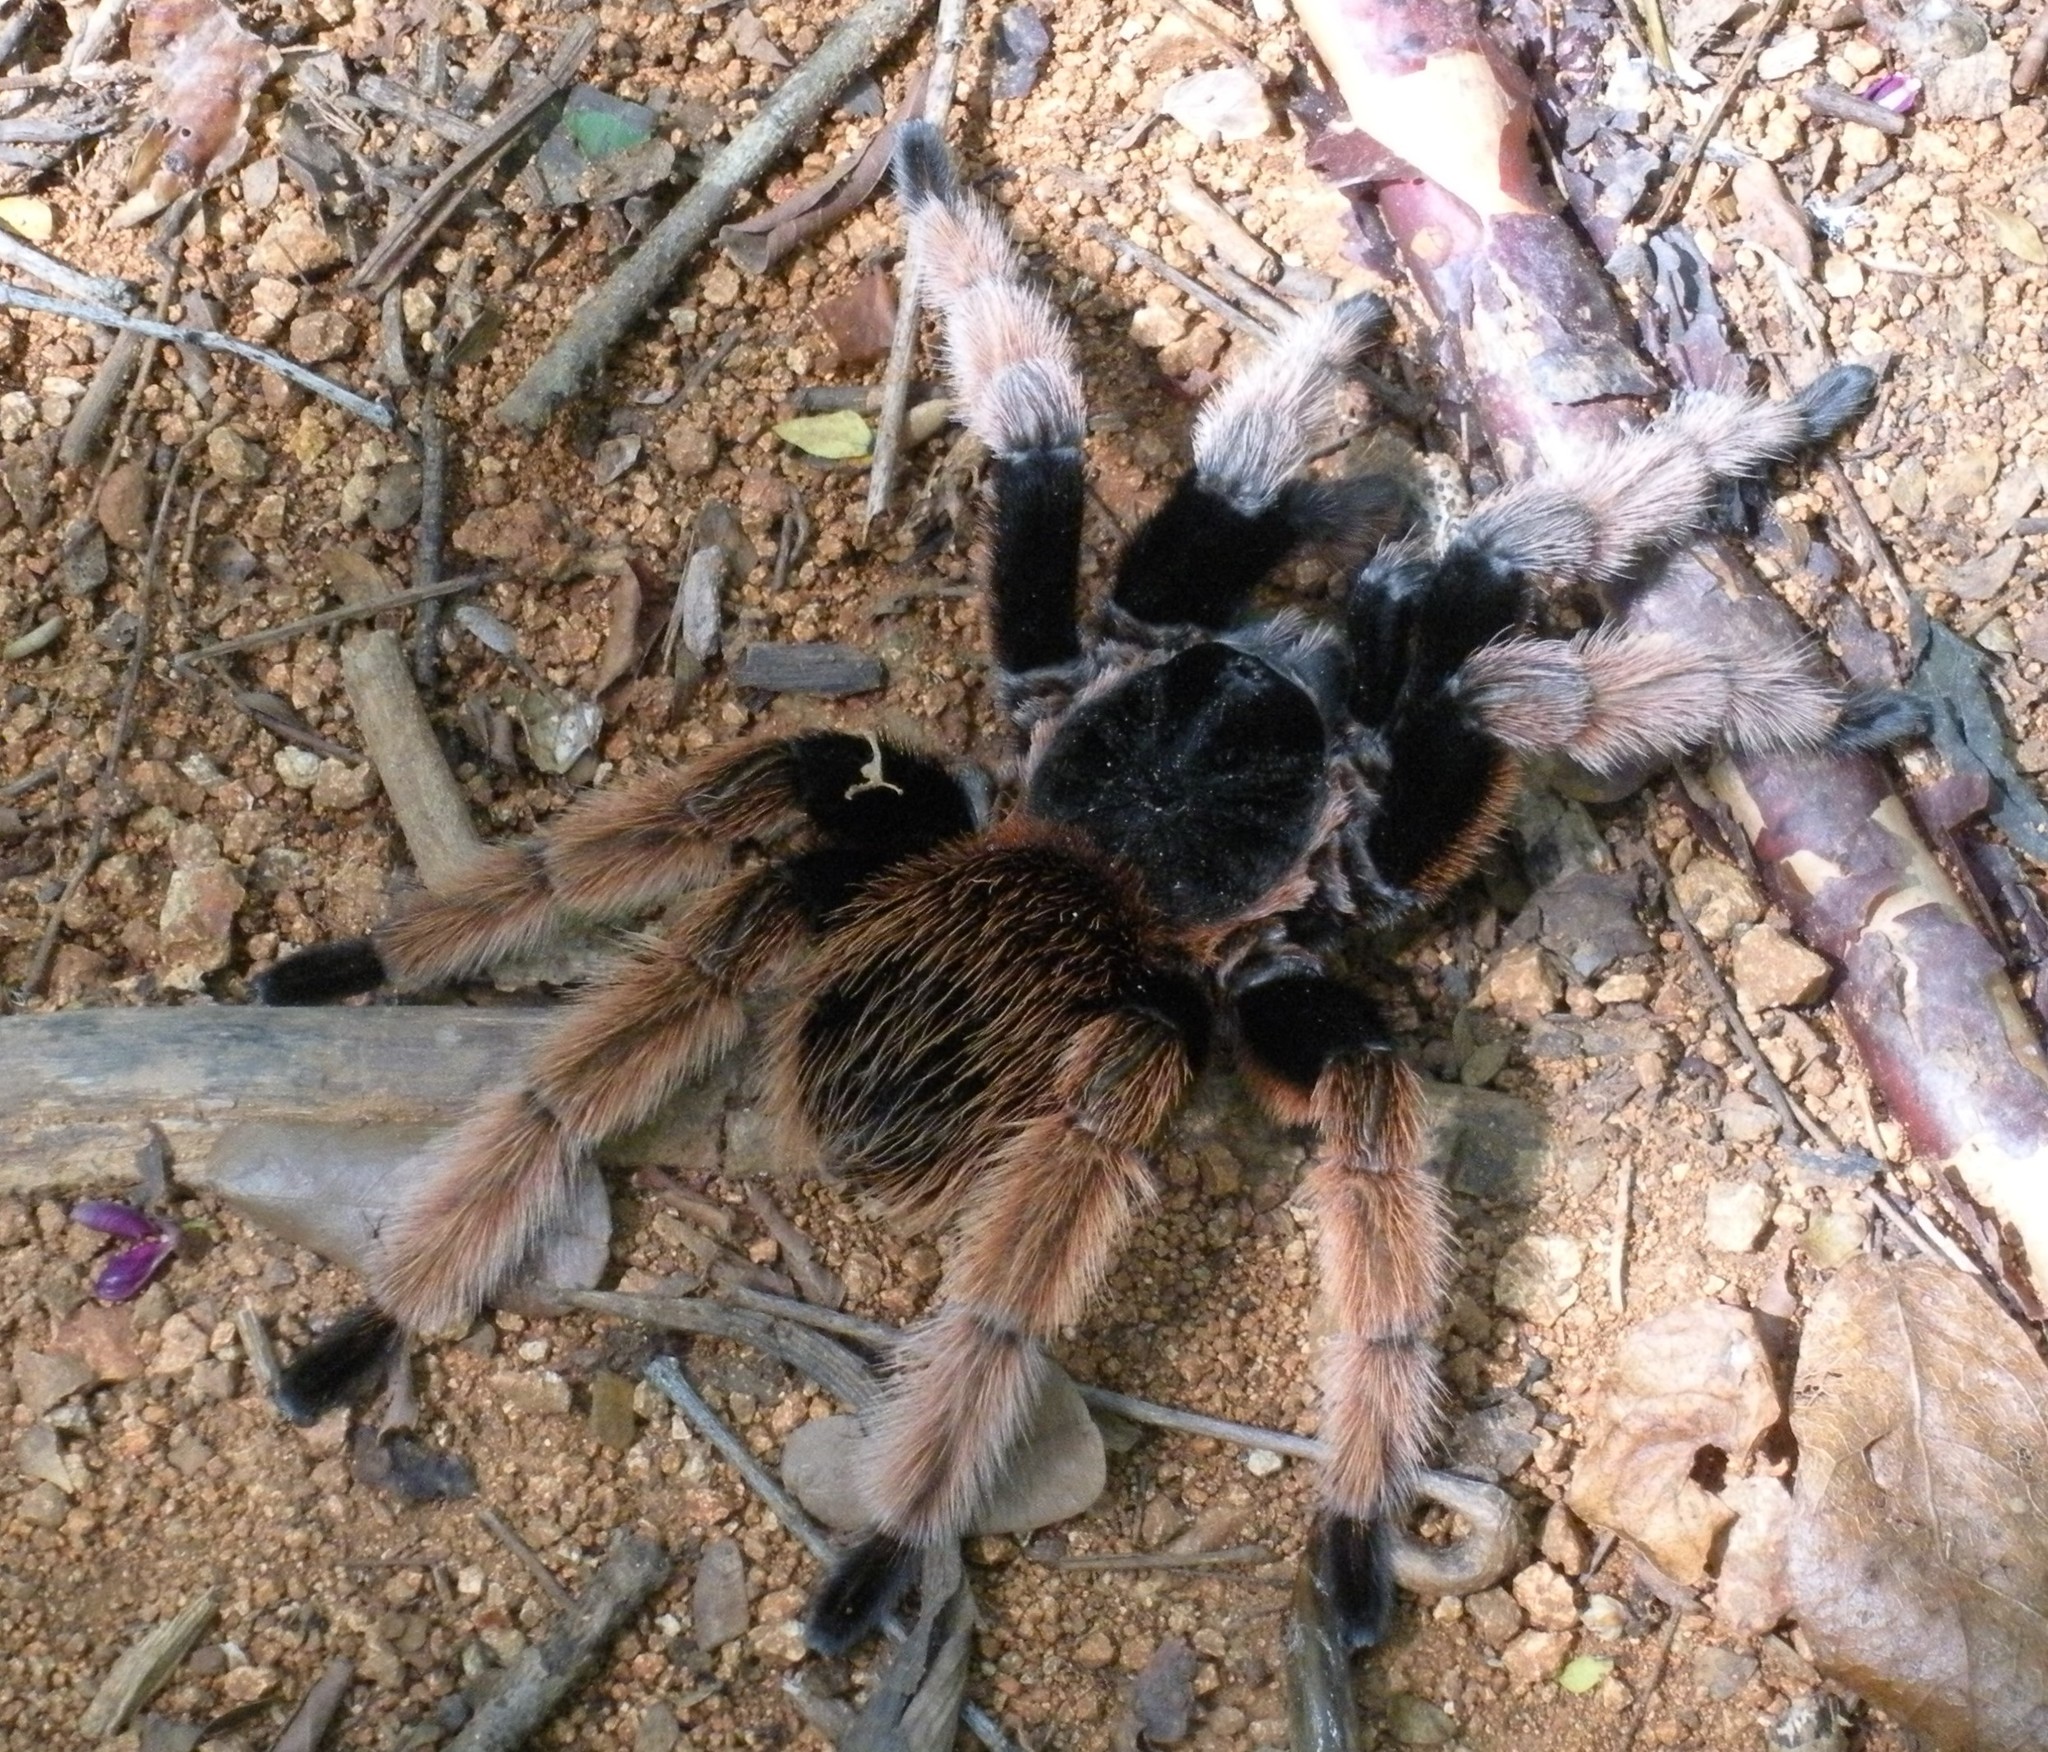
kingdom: Animalia
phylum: Arthropoda
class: Arachnida
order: Araneae
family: Theraphosidae
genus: Brachypelma
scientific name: Brachypelma klaasi
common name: Mexican pink beauty
